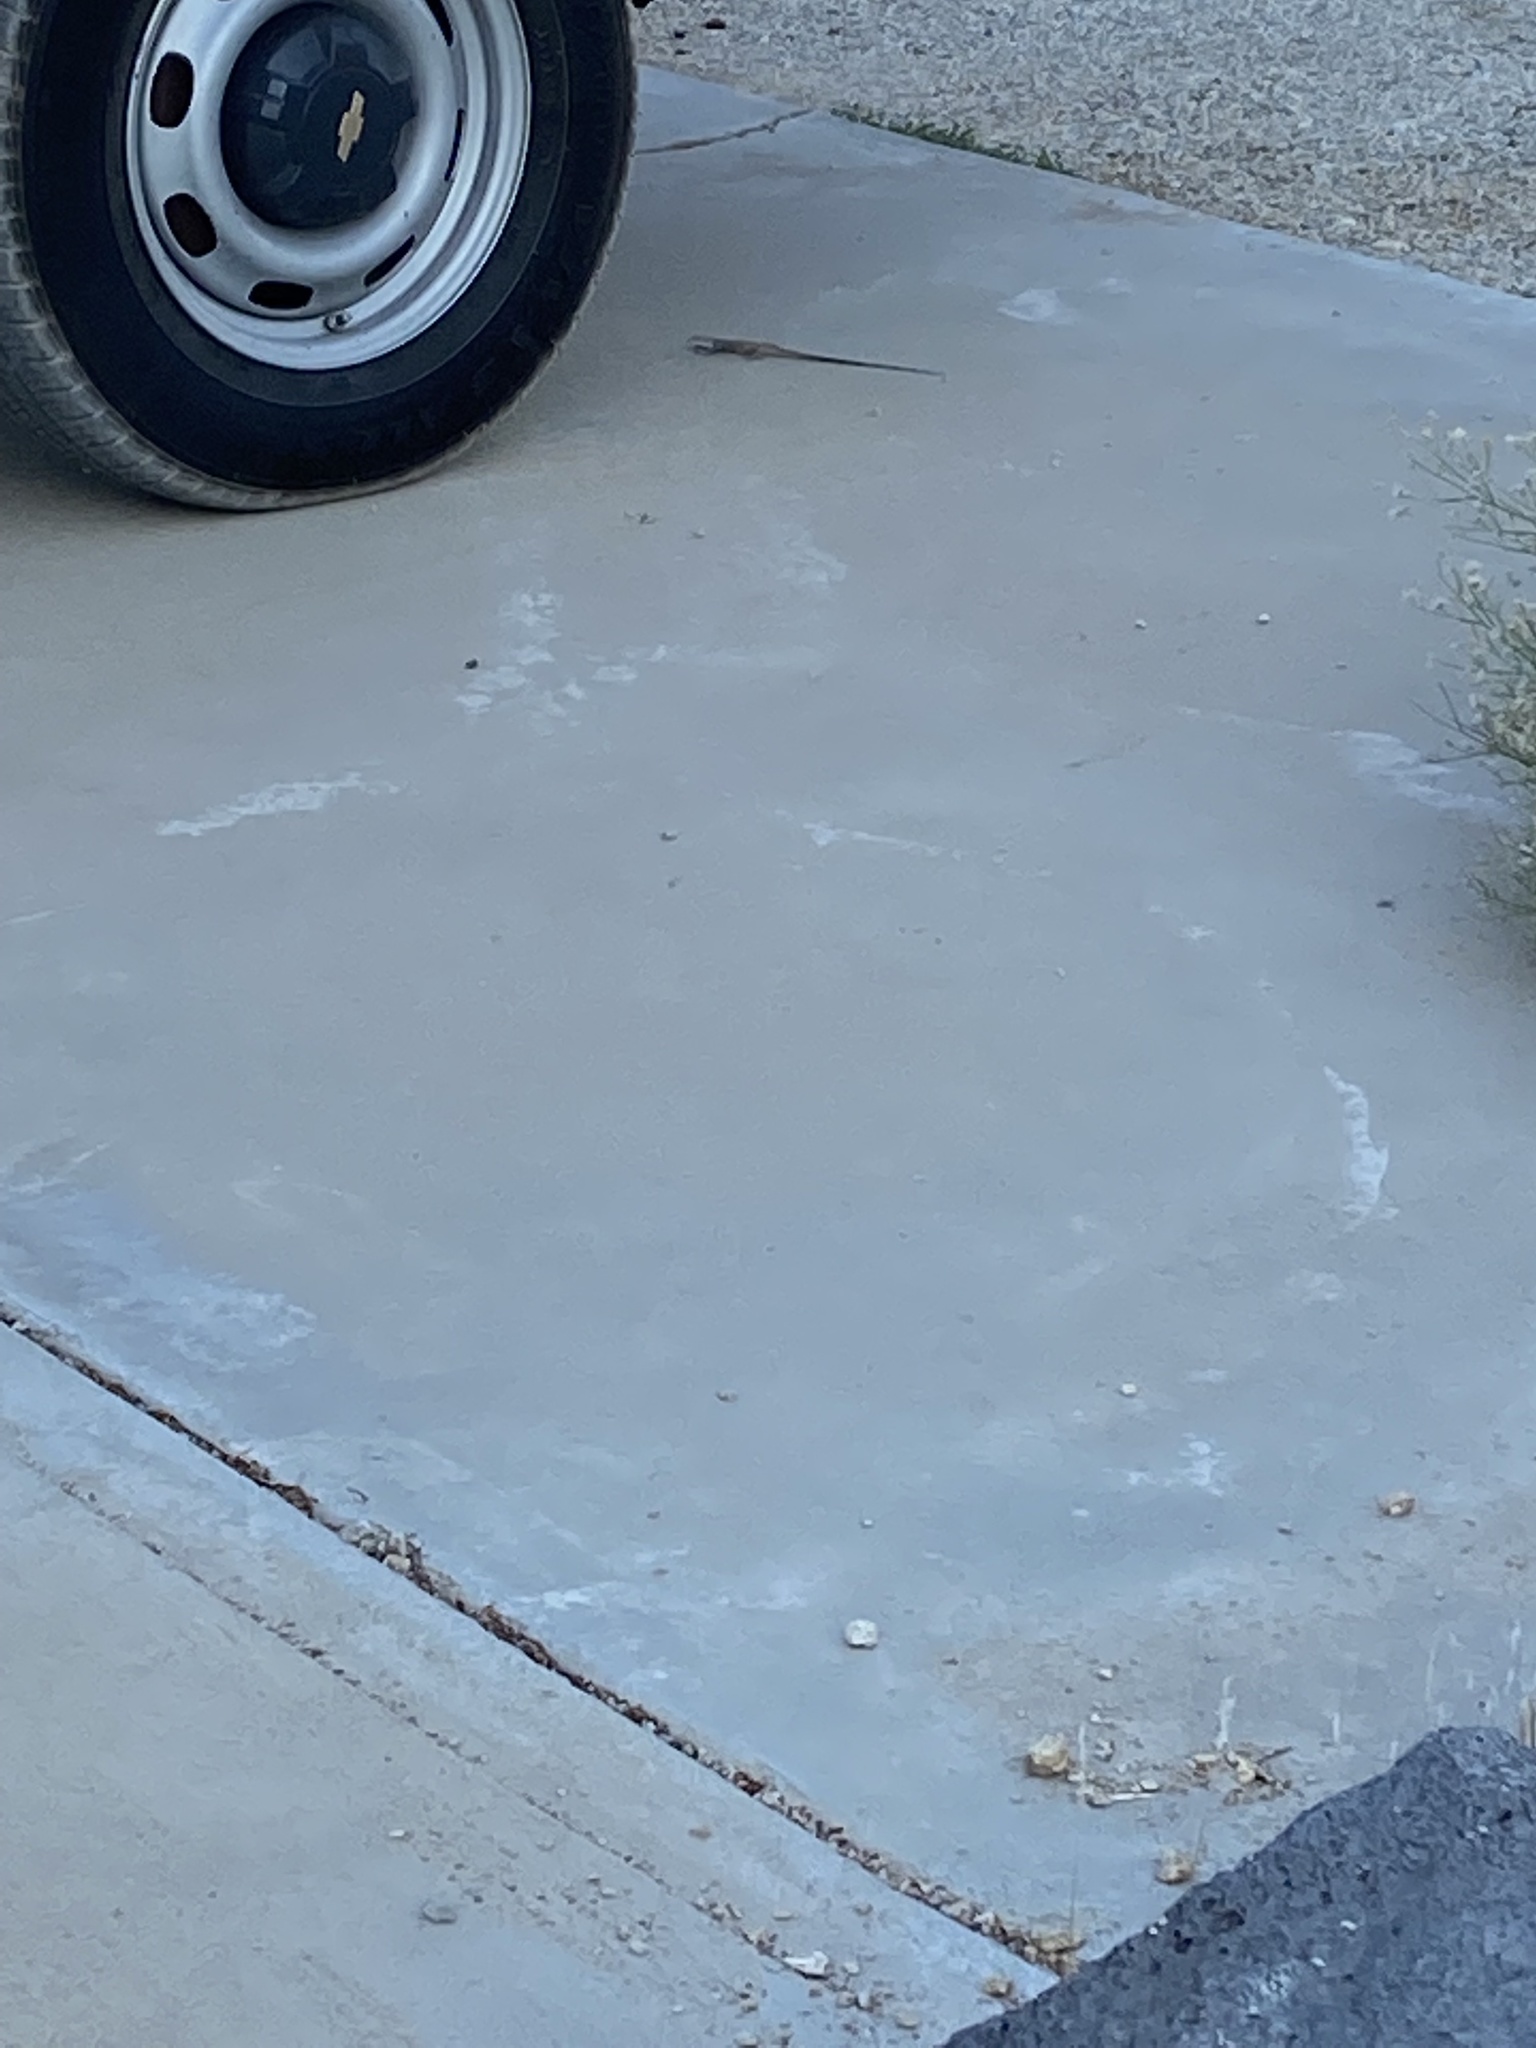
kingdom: Animalia
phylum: Chordata
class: Squamata
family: Teiidae
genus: Aspidoscelis
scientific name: Aspidoscelis tigris
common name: Tiger whiptail
